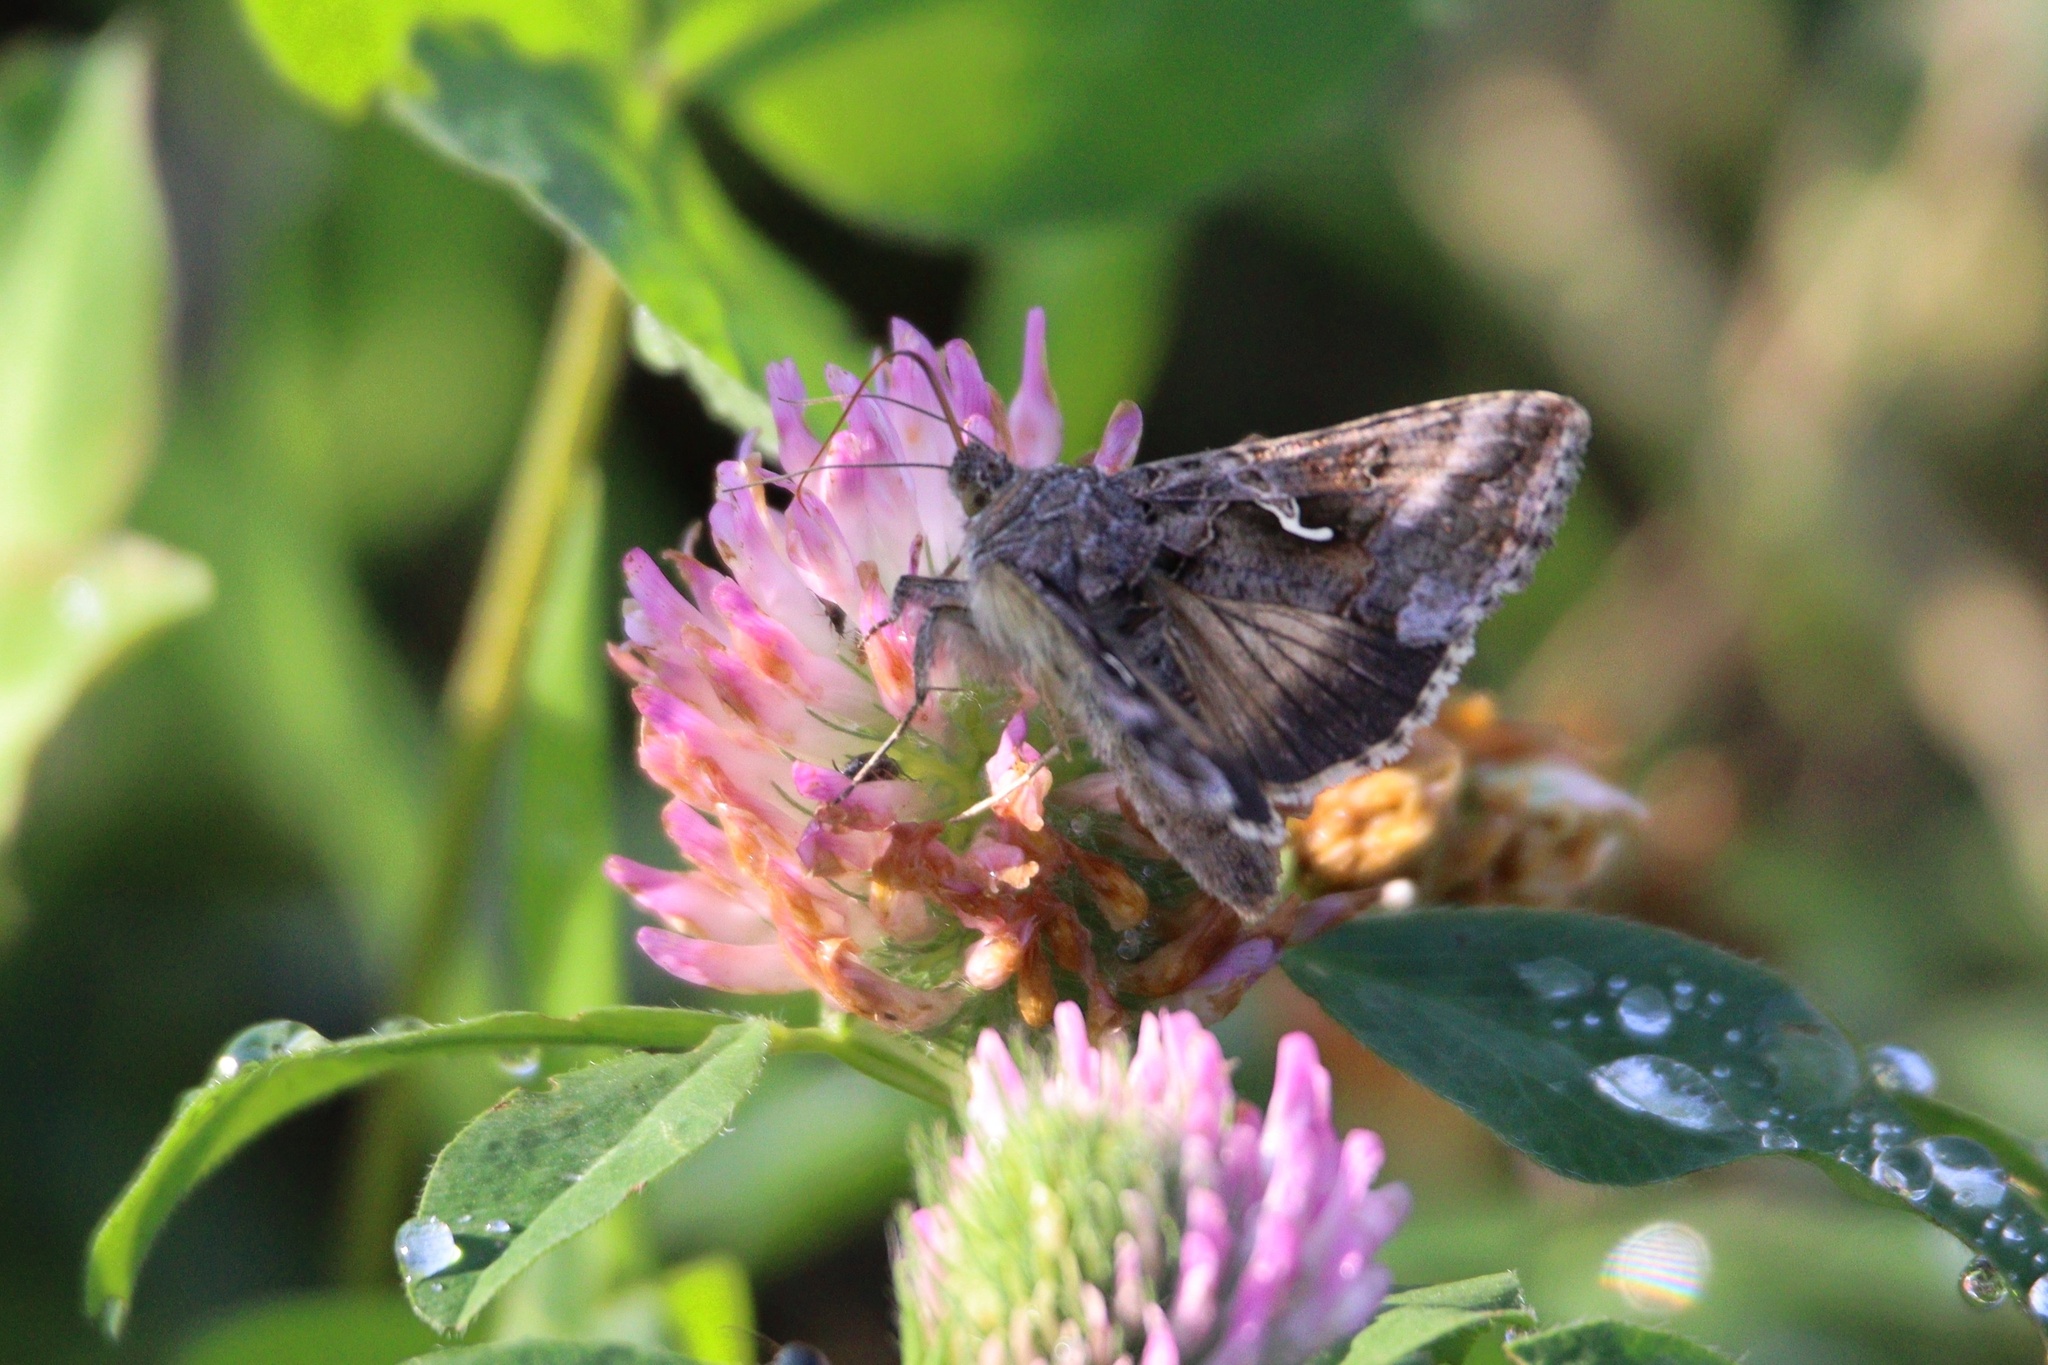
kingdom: Animalia
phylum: Arthropoda
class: Insecta
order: Lepidoptera
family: Noctuidae
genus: Autographa
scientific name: Autographa gamma
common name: Silver y
